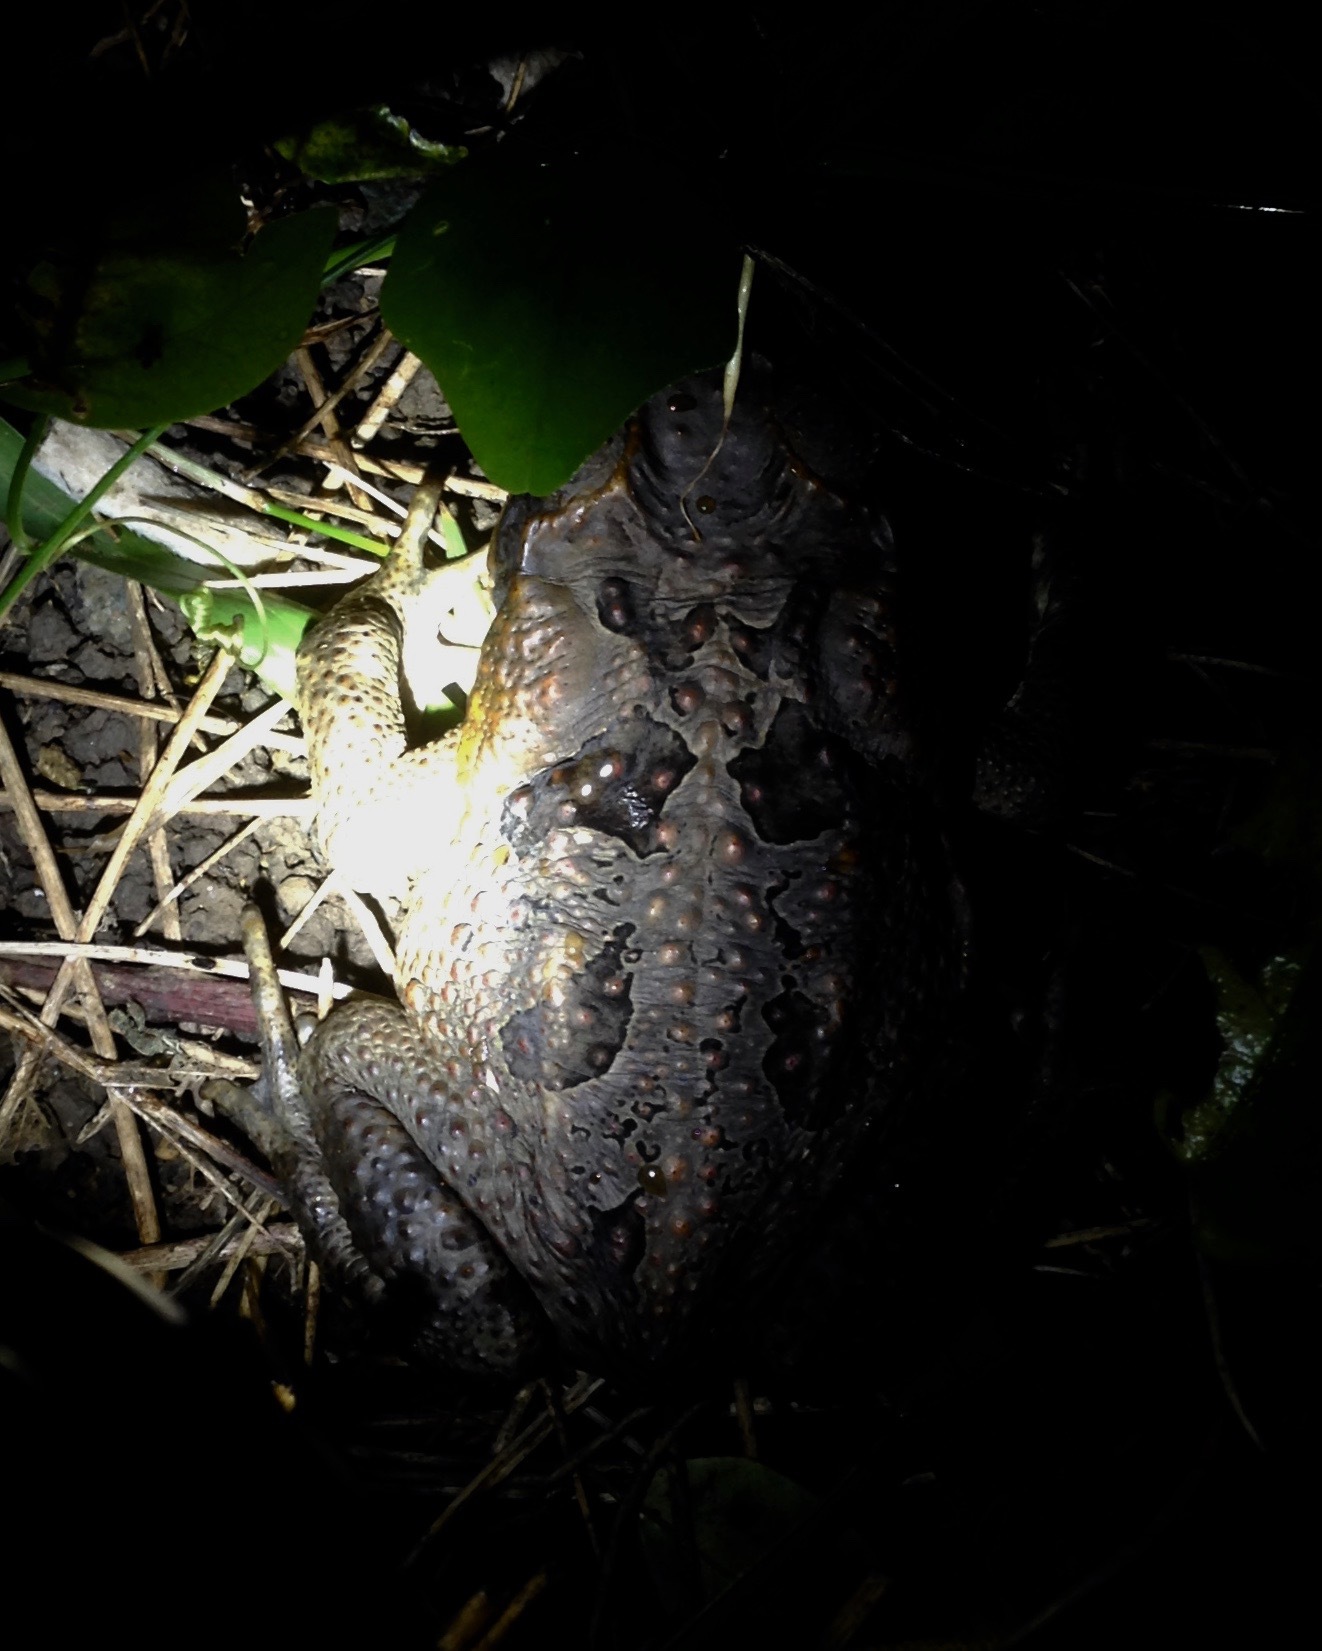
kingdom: Animalia
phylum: Chordata
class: Amphibia
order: Anura
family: Bufonidae
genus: Rhinella
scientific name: Rhinella marina
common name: Cane toad
